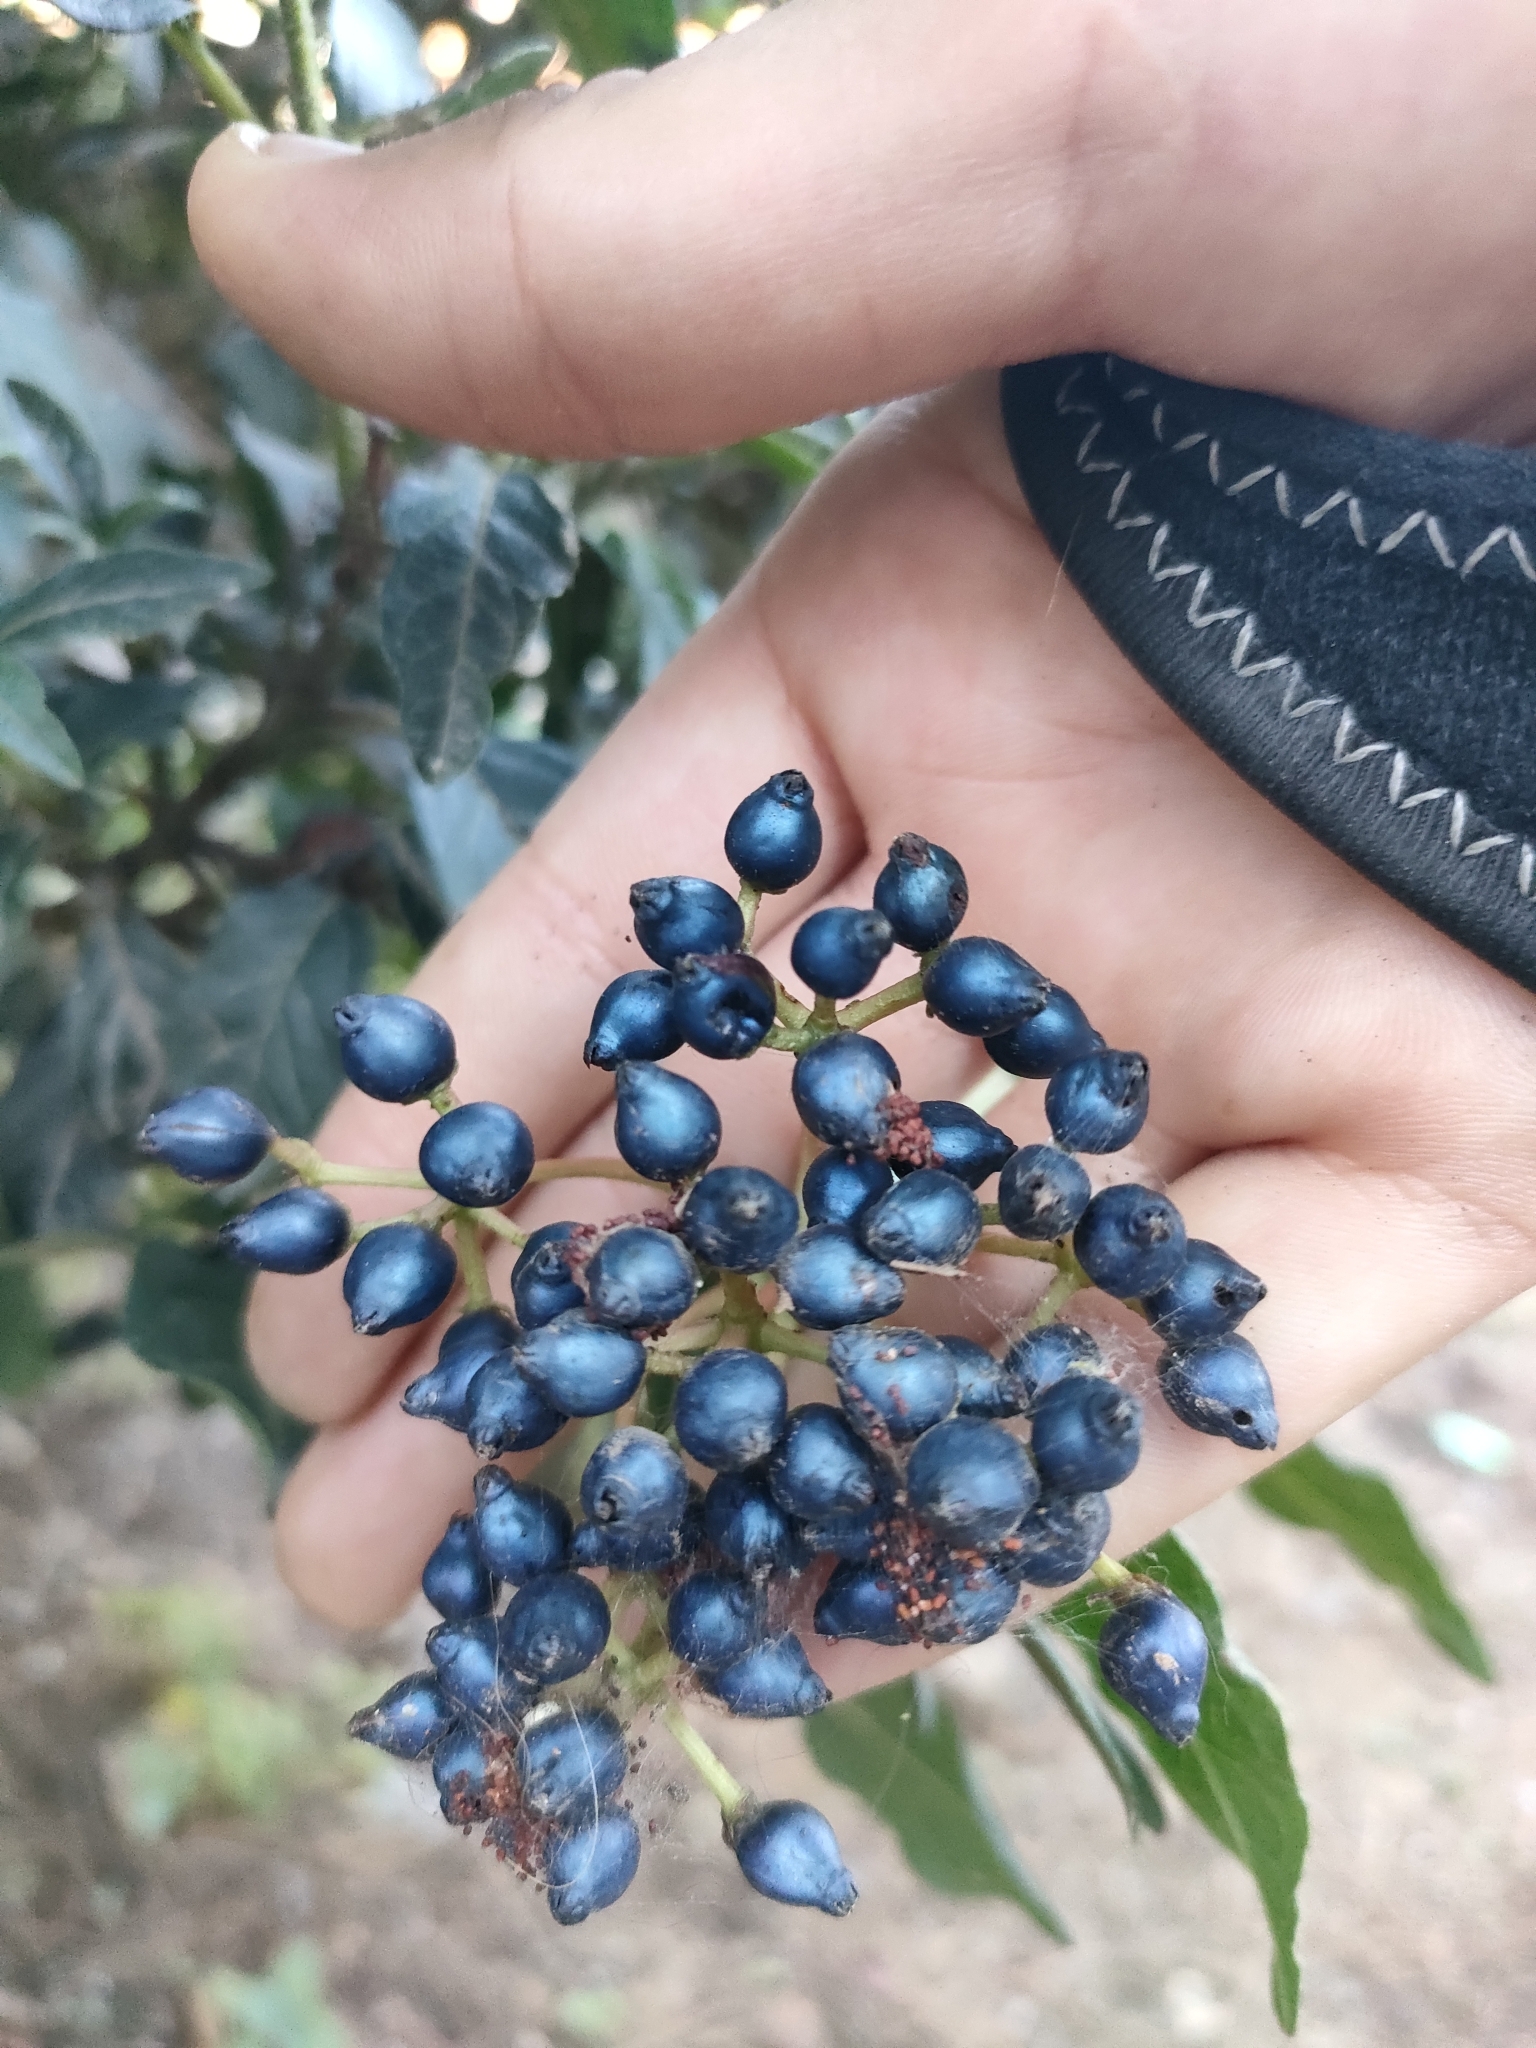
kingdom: Plantae
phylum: Tracheophyta
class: Magnoliopsida
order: Dipsacales
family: Viburnaceae
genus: Viburnum
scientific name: Viburnum tinus
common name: Laurustinus
